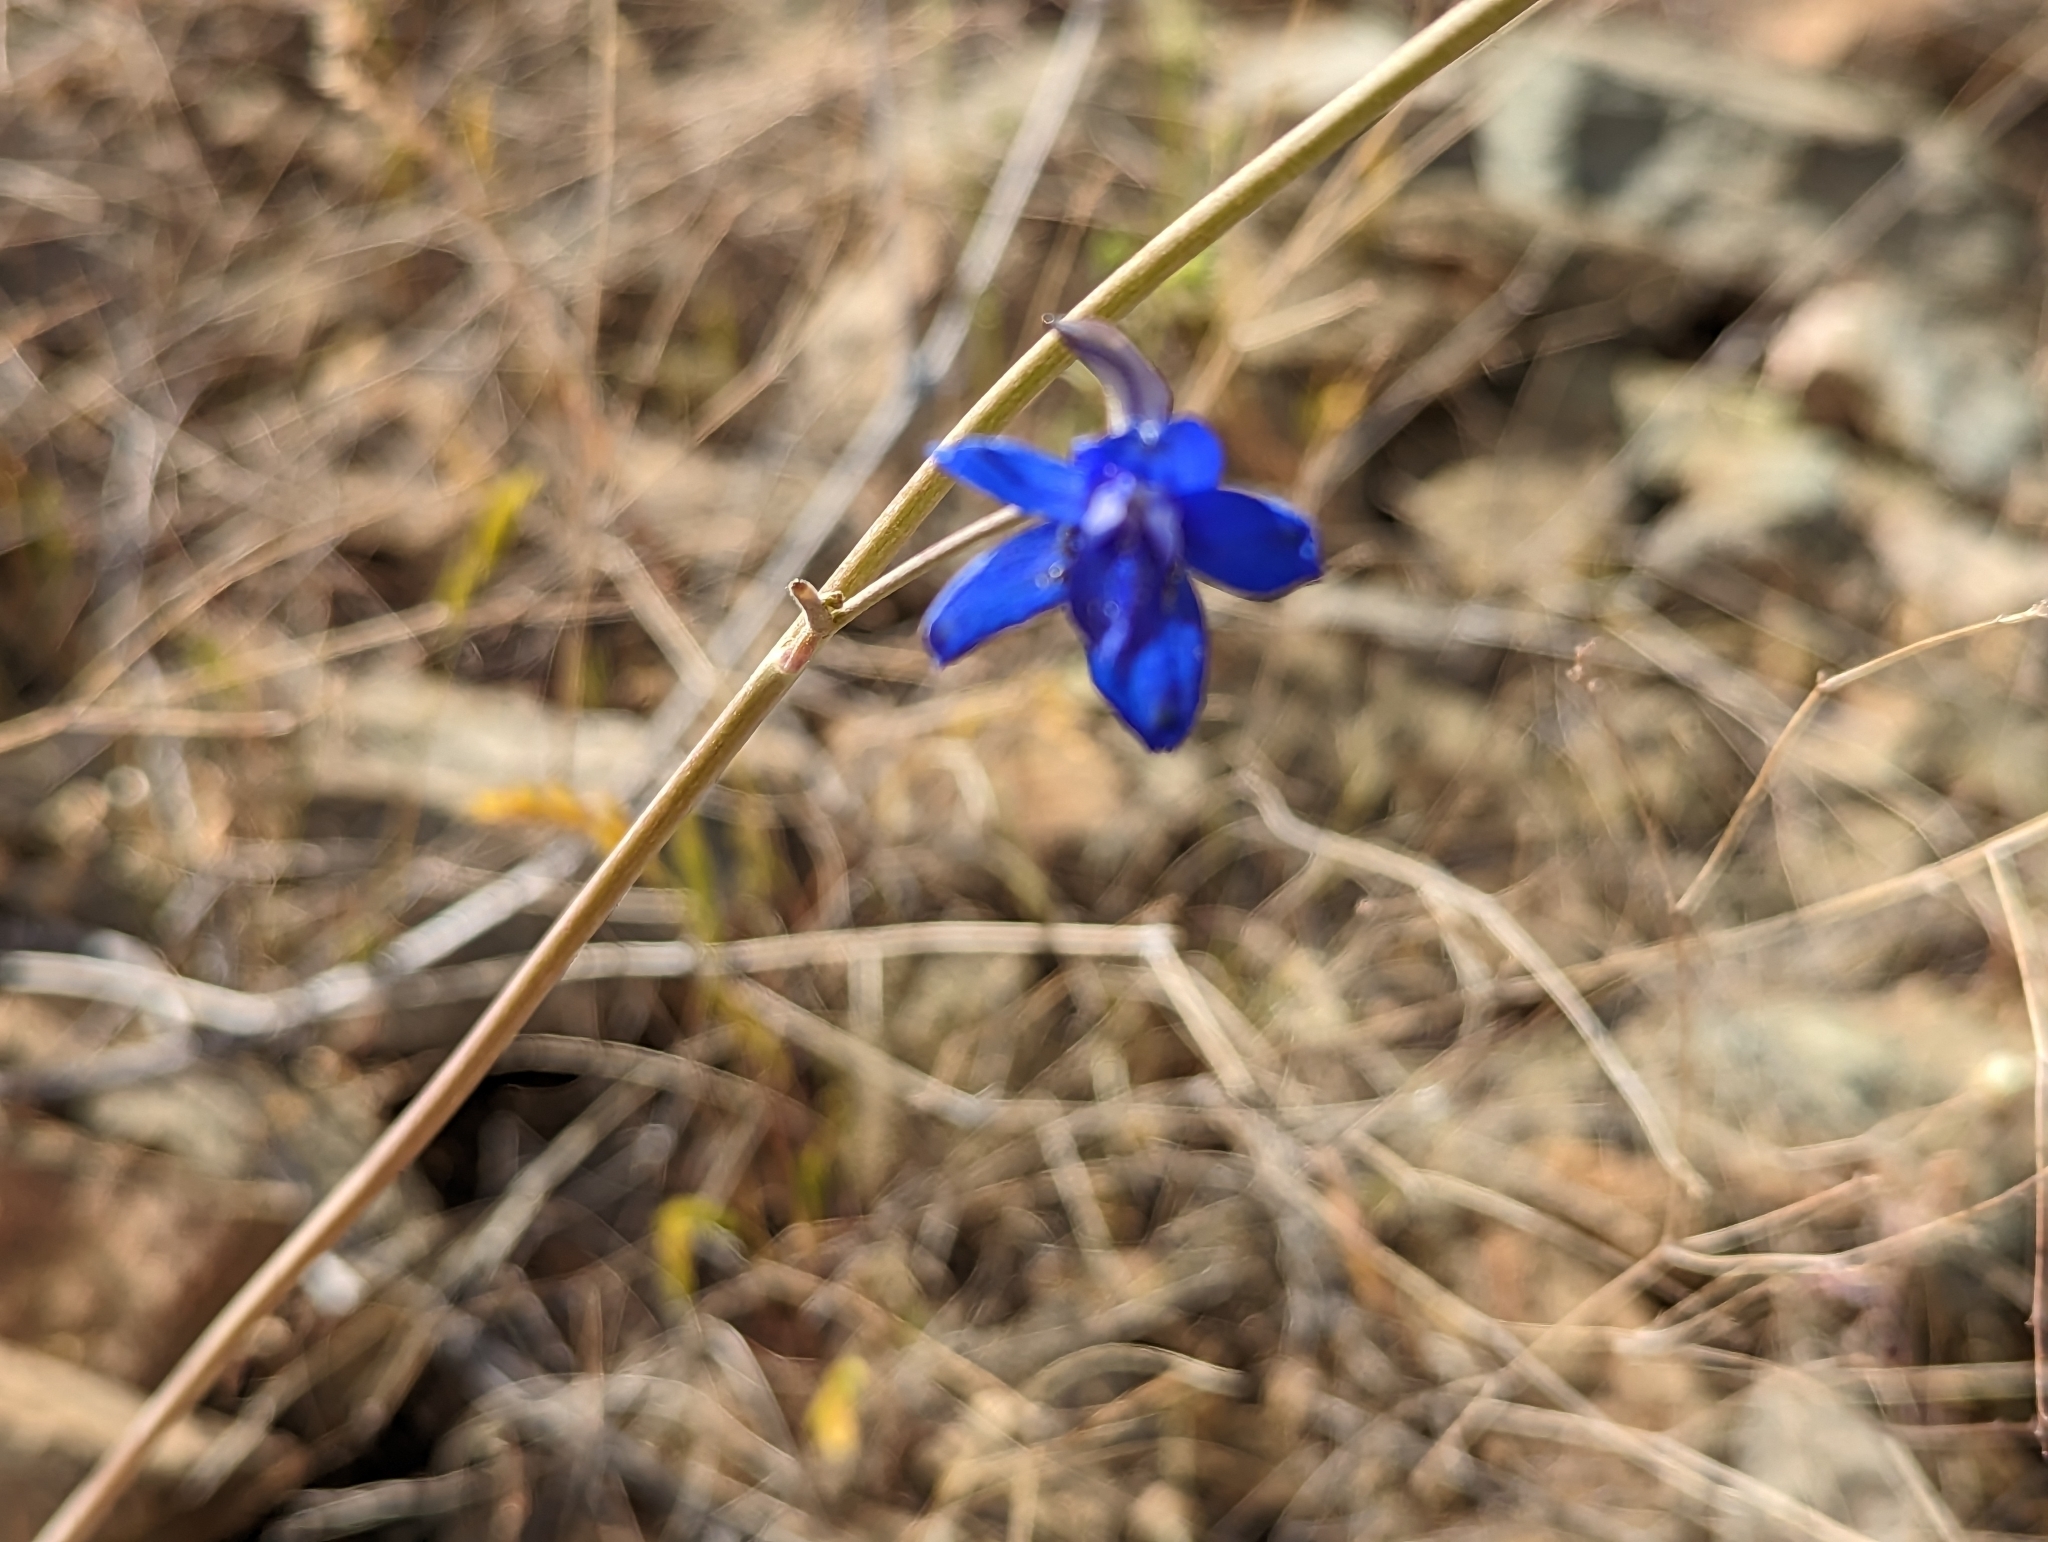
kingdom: Plantae
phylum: Tracheophyta
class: Magnoliopsida
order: Ranunculales
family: Ranunculaceae
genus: Delphinium
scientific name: Delphinium scaposum
